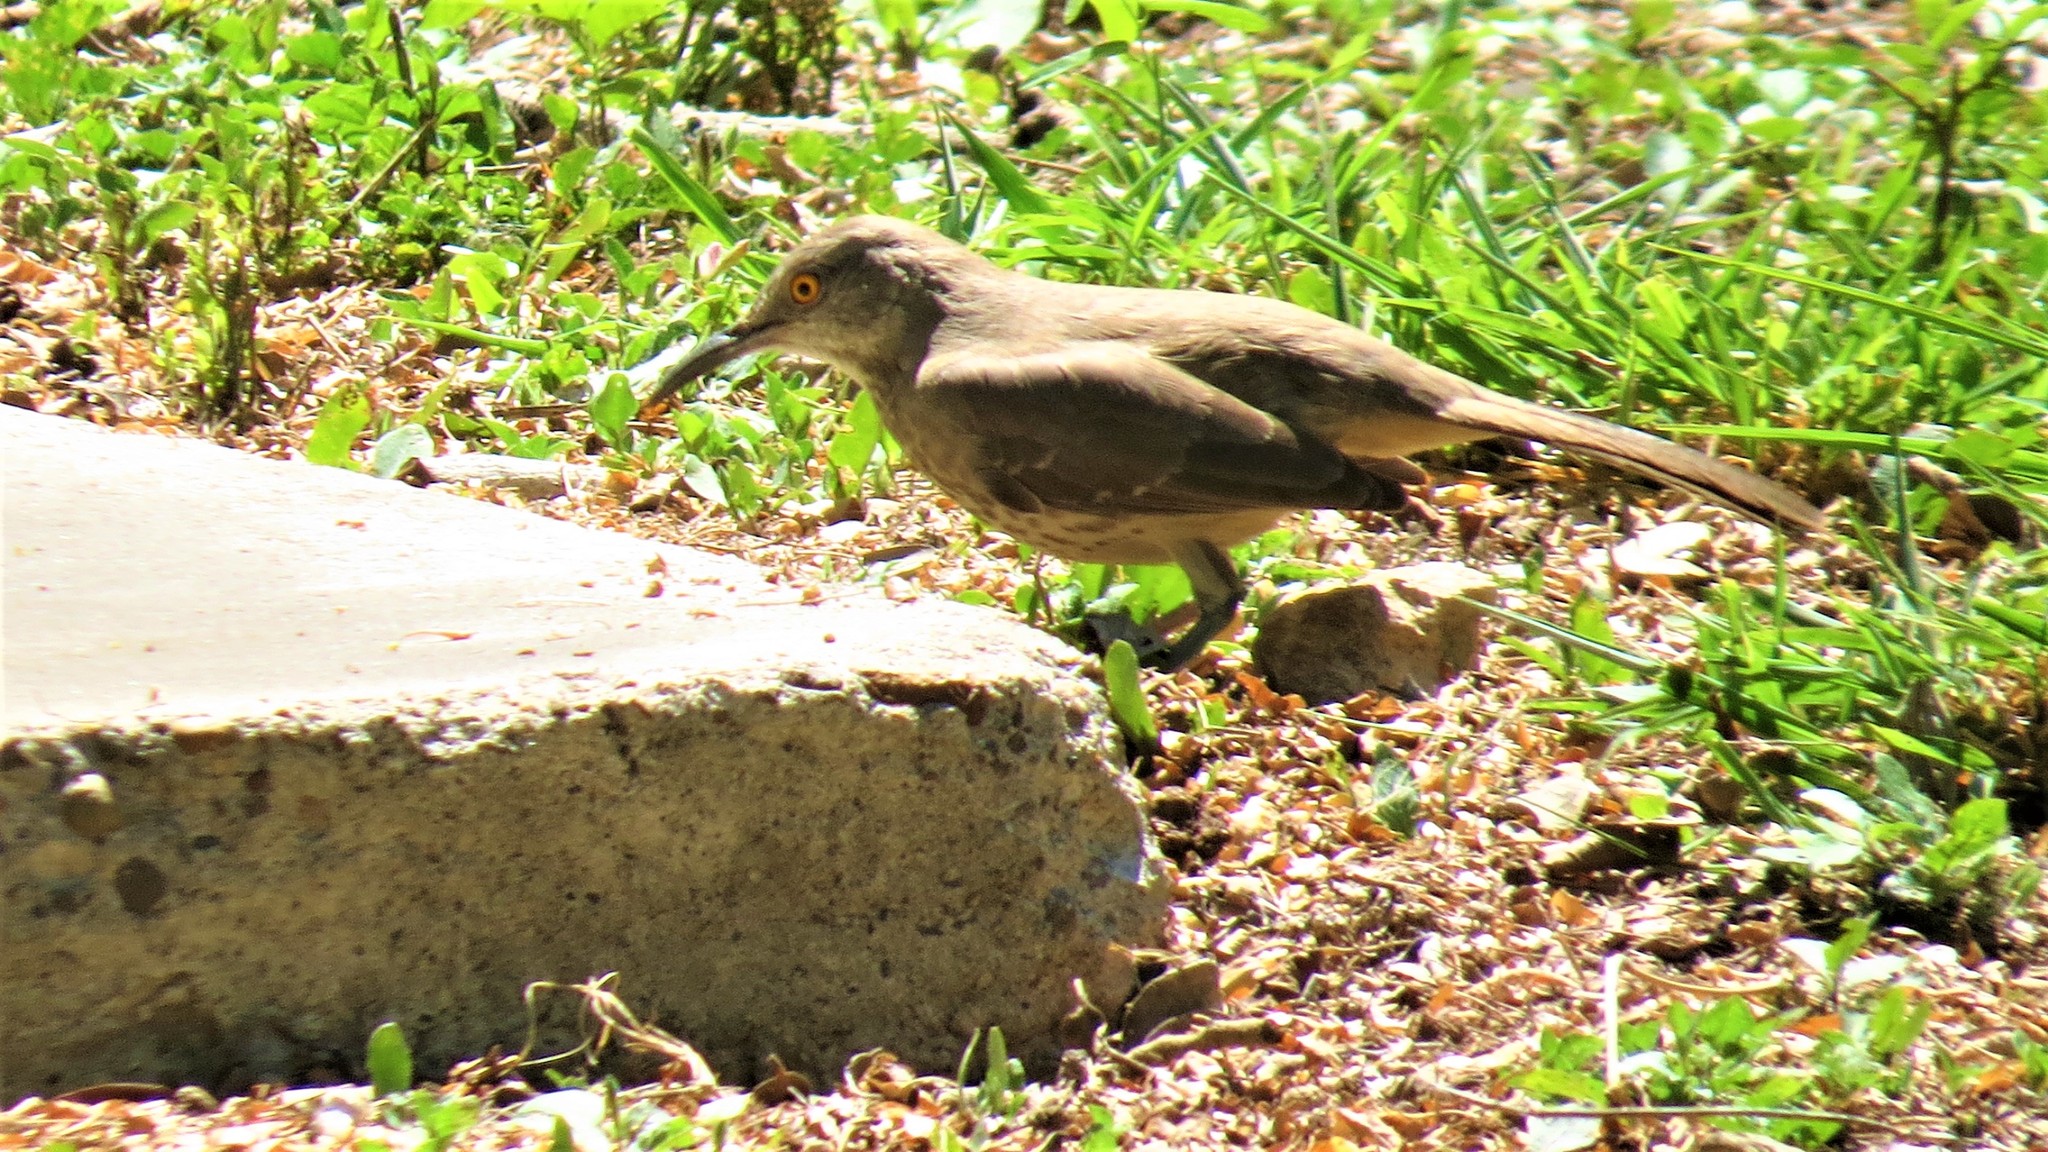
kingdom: Animalia
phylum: Chordata
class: Aves
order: Passeriformes
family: Mimidae
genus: Toxostoma
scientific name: Toxostoma curvirostre
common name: Curve-billed thrasher
